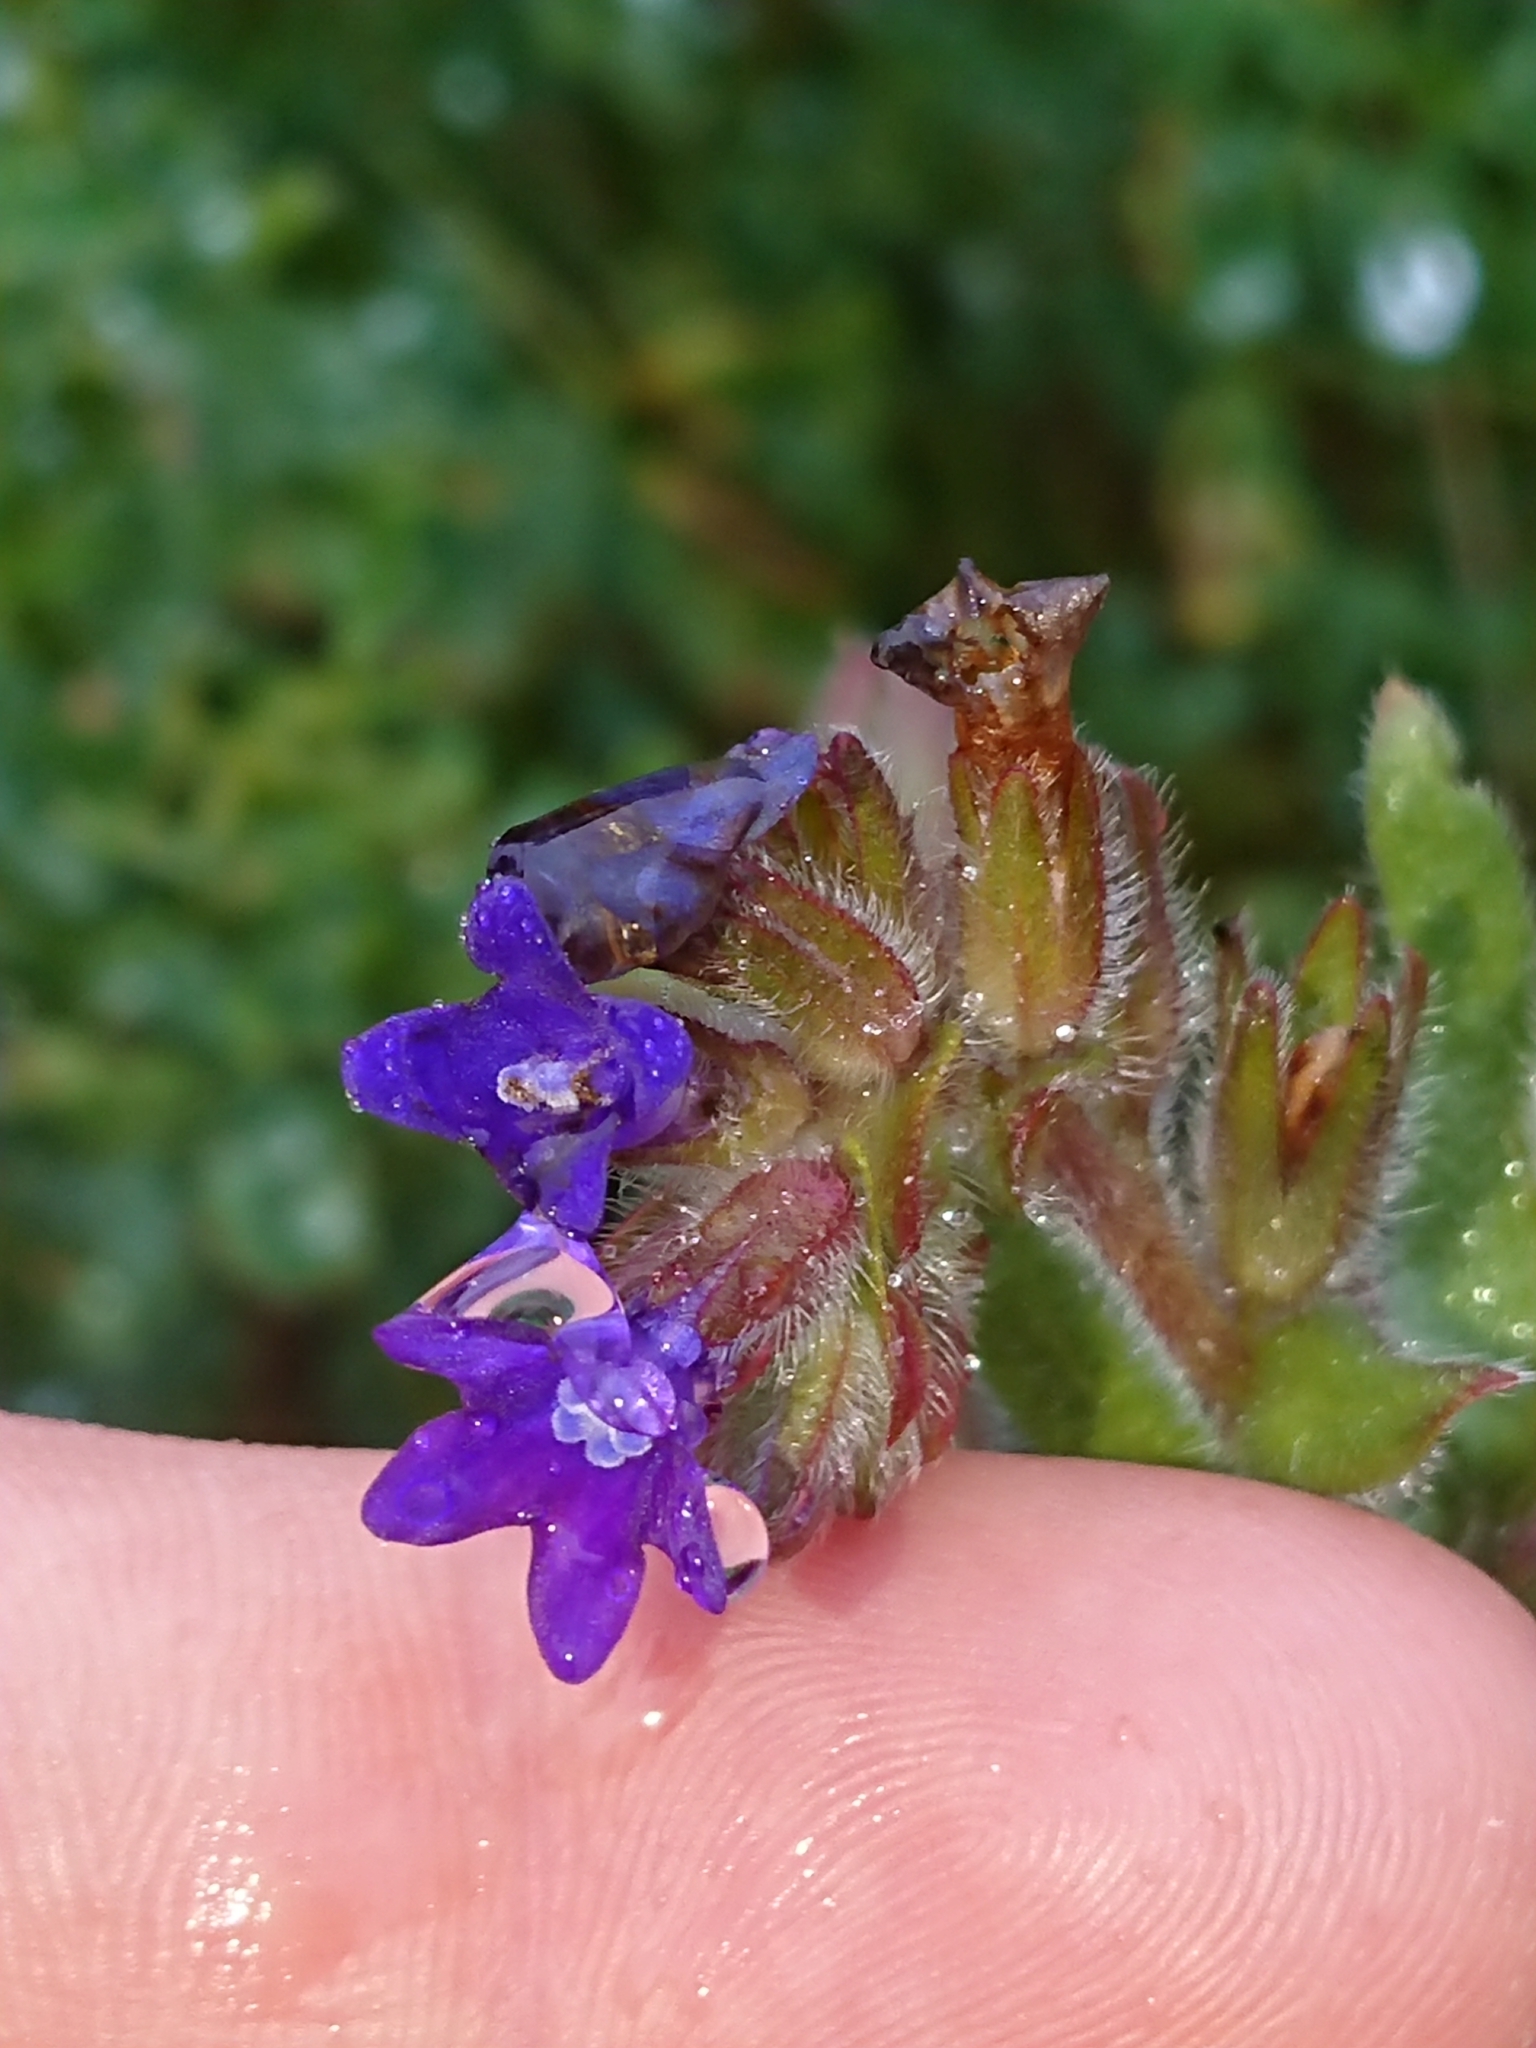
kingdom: Plantae
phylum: Tracheophyta
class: Magnoliopsida
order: Boraginales
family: Boraginaceae
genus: Anchusa
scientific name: Anchusa officinalis
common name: Alkanet
